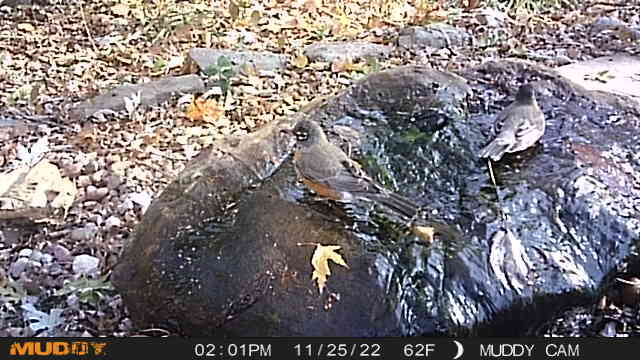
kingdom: Animalia
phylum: Chordata
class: Aves
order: Passeriformes
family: Turdidae
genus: Turdus
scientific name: Turdus migratorius
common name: American robin
